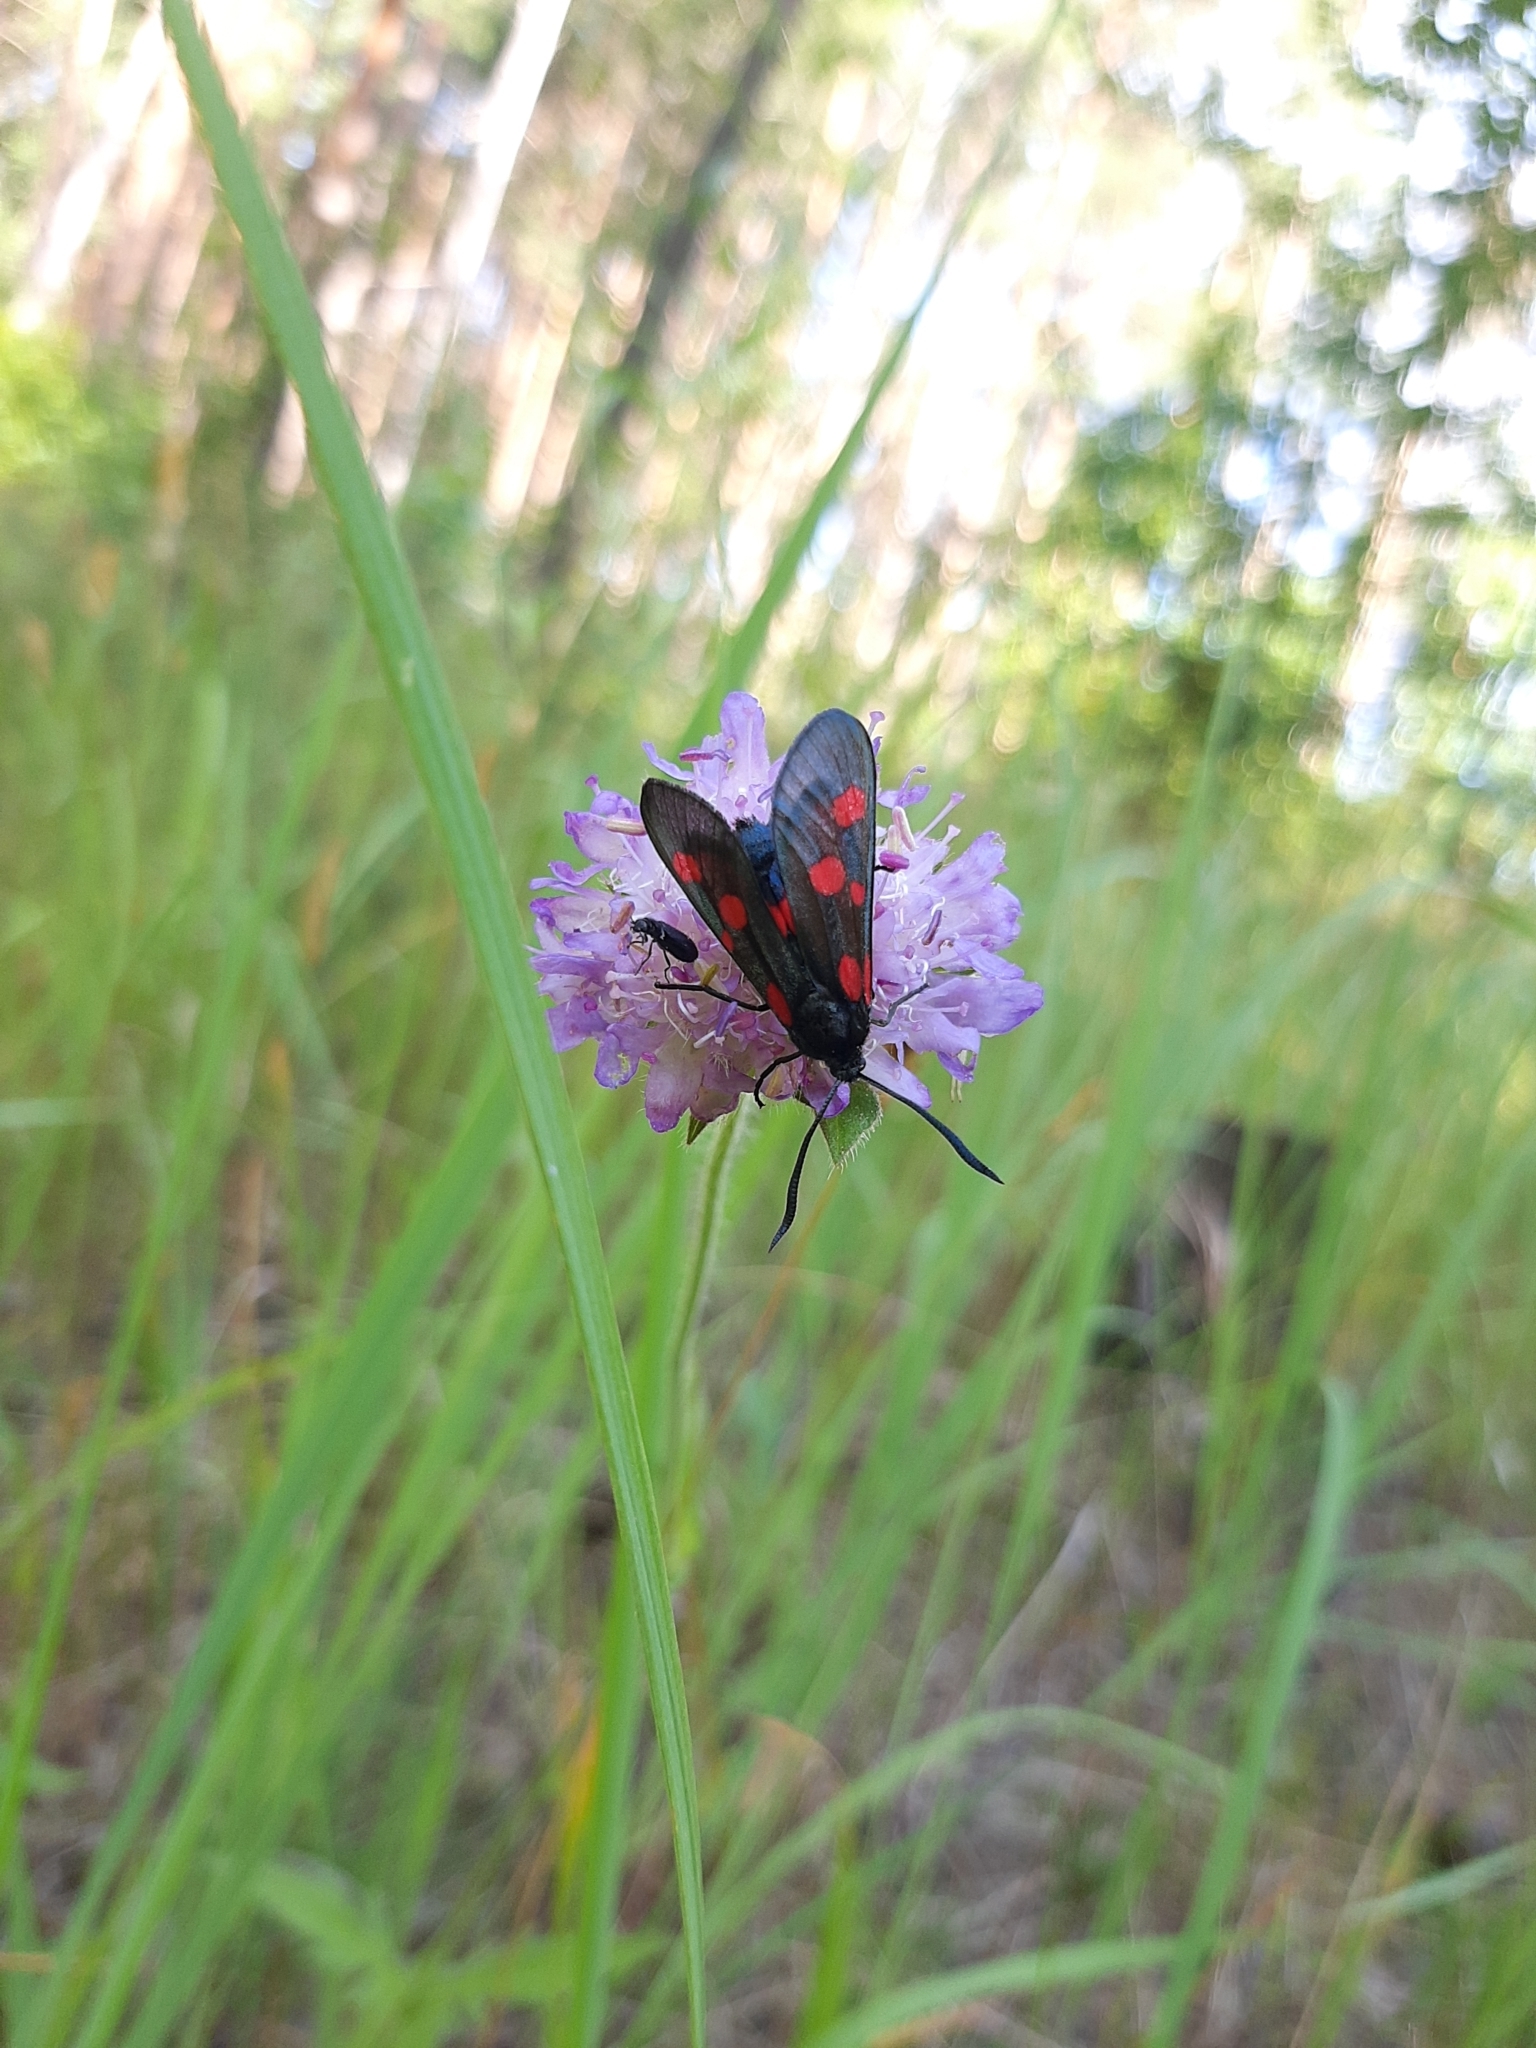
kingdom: Animalia
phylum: Arthropoda
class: Insecta
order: Lepidoptera
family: Zygaenidae
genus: Zygaena
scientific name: Zygaena viciae
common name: New forest burnet
